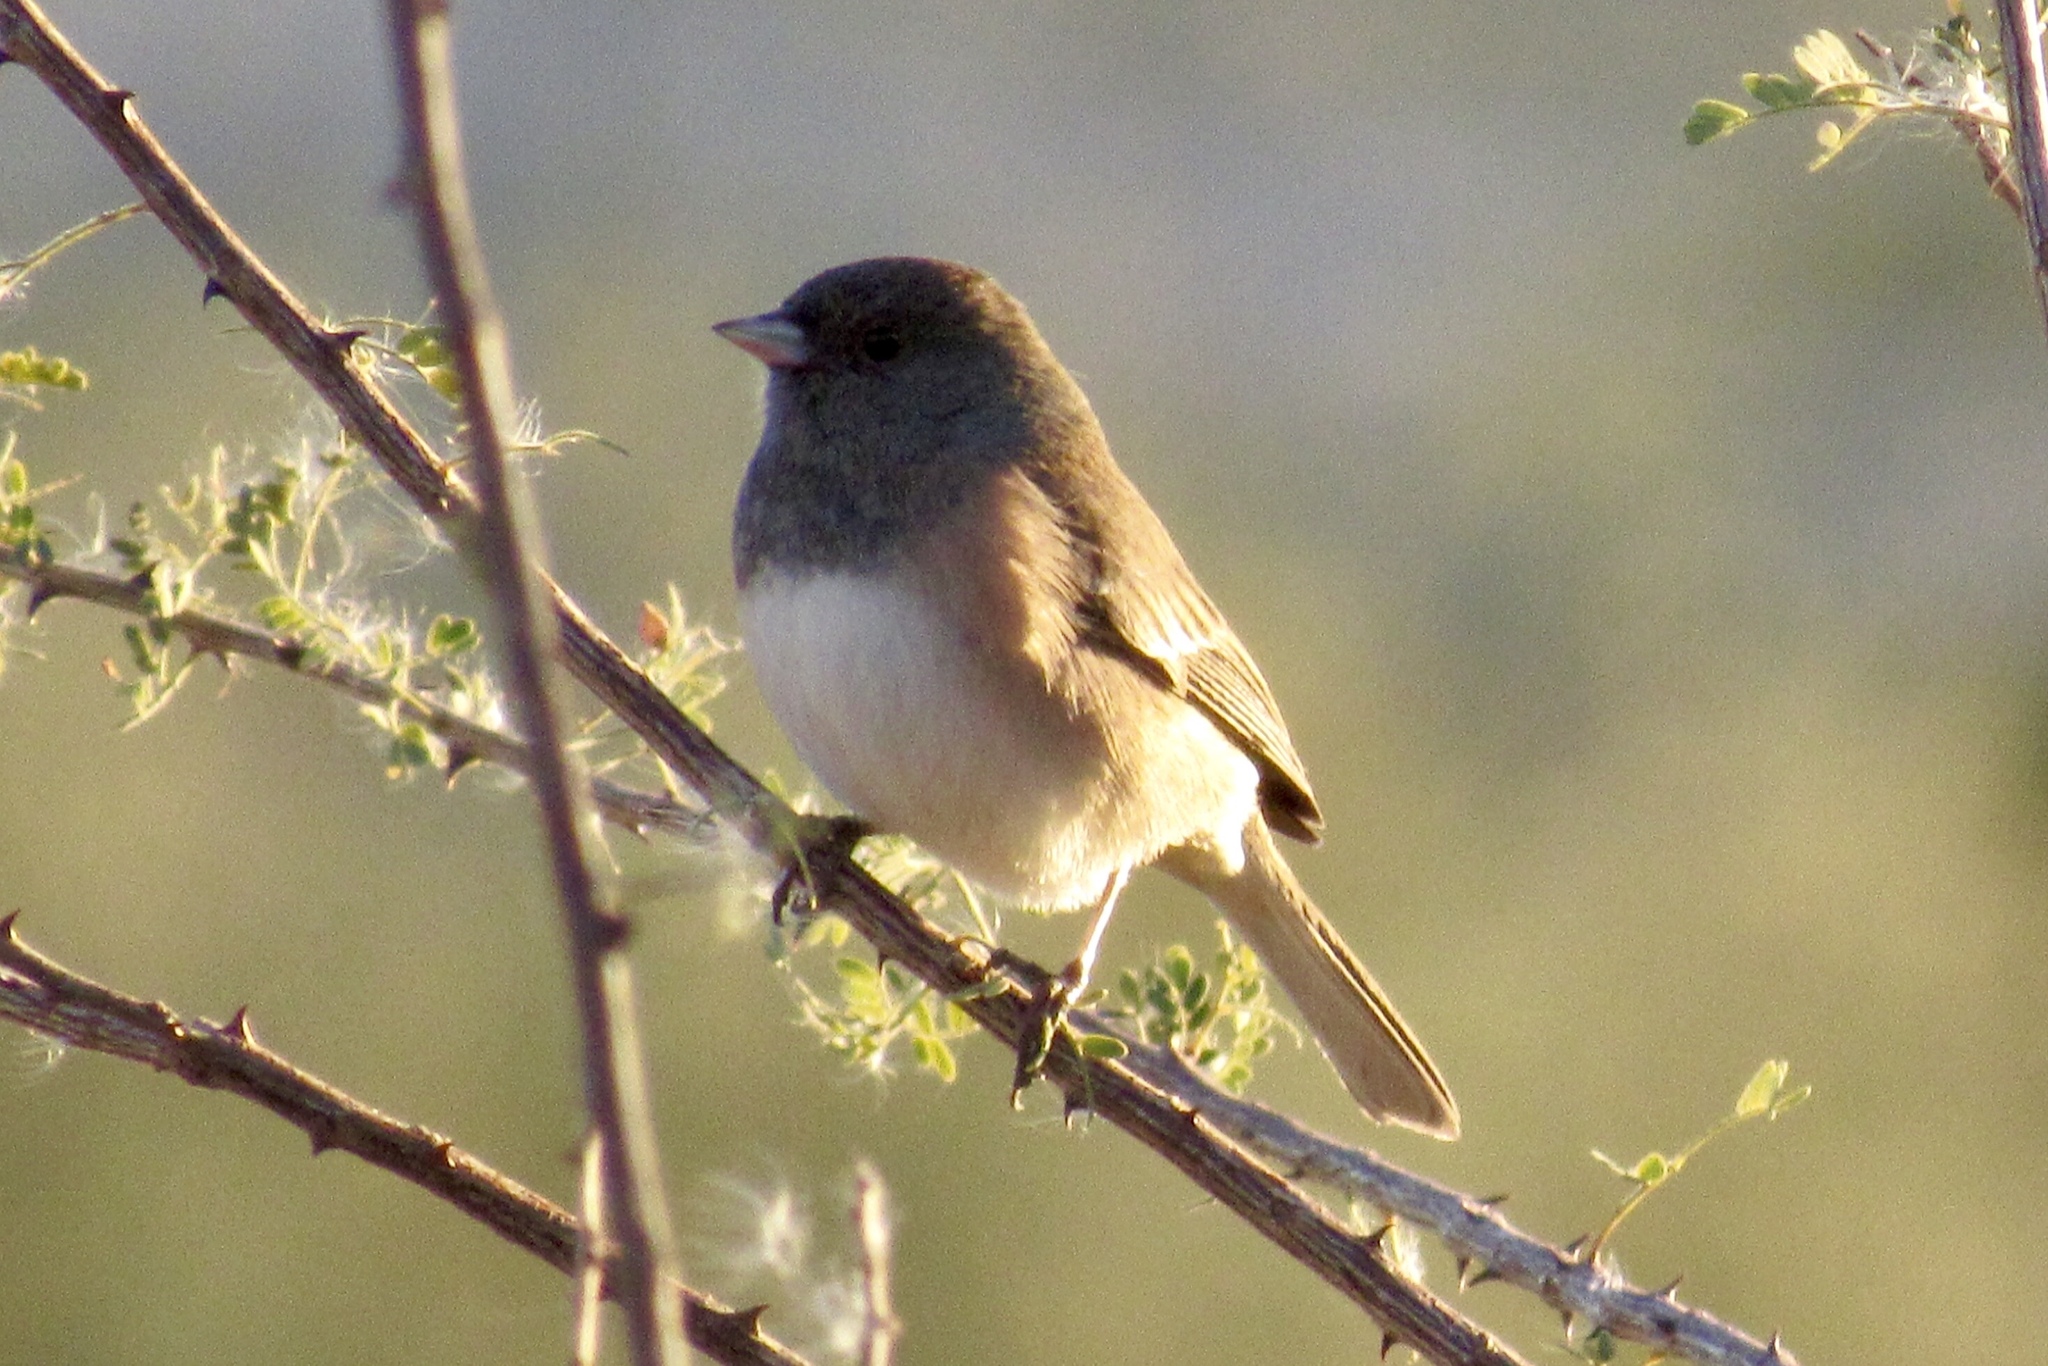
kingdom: Animalia
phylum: Chordata
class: Aves
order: Passeriformes
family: Passerellidae
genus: Junco
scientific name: Junco hyemalis
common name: Dark-eyed junco
